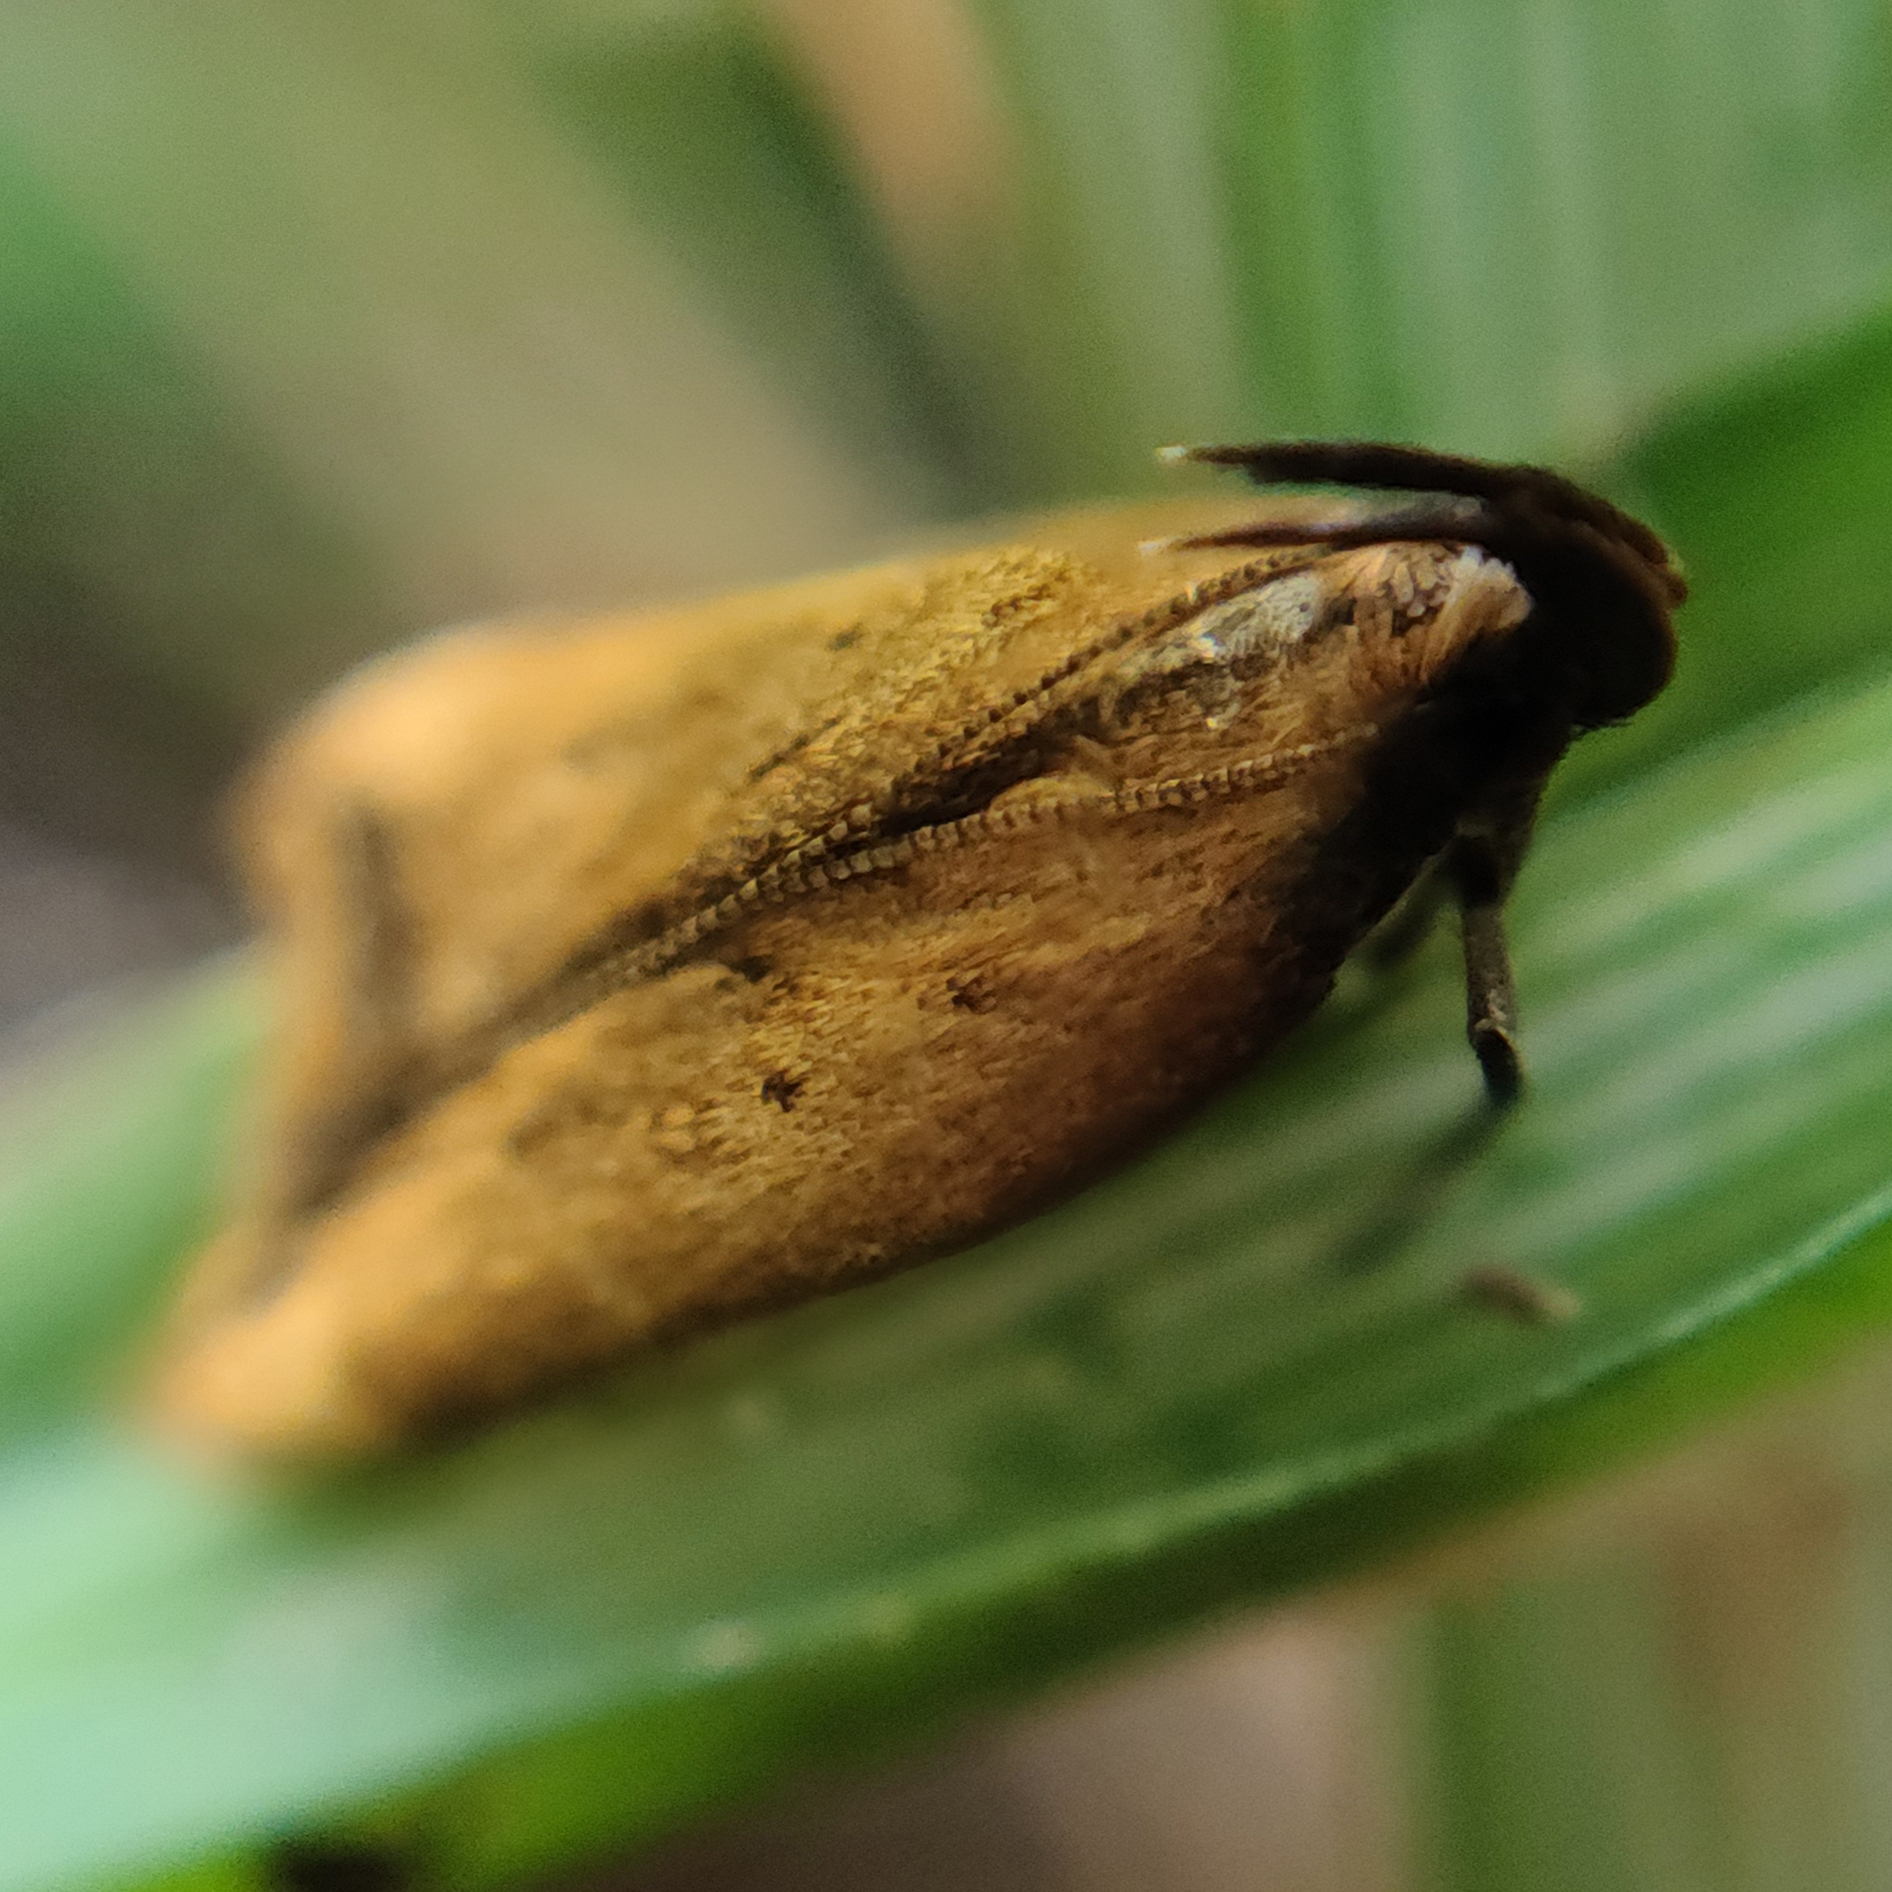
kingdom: Animalia
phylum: Arthropoda
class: Insecta
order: Lepidoptera
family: Gelechiidae
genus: Dichomeris
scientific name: Dichomeris heriguronis
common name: Black-edged dichomeris moth
